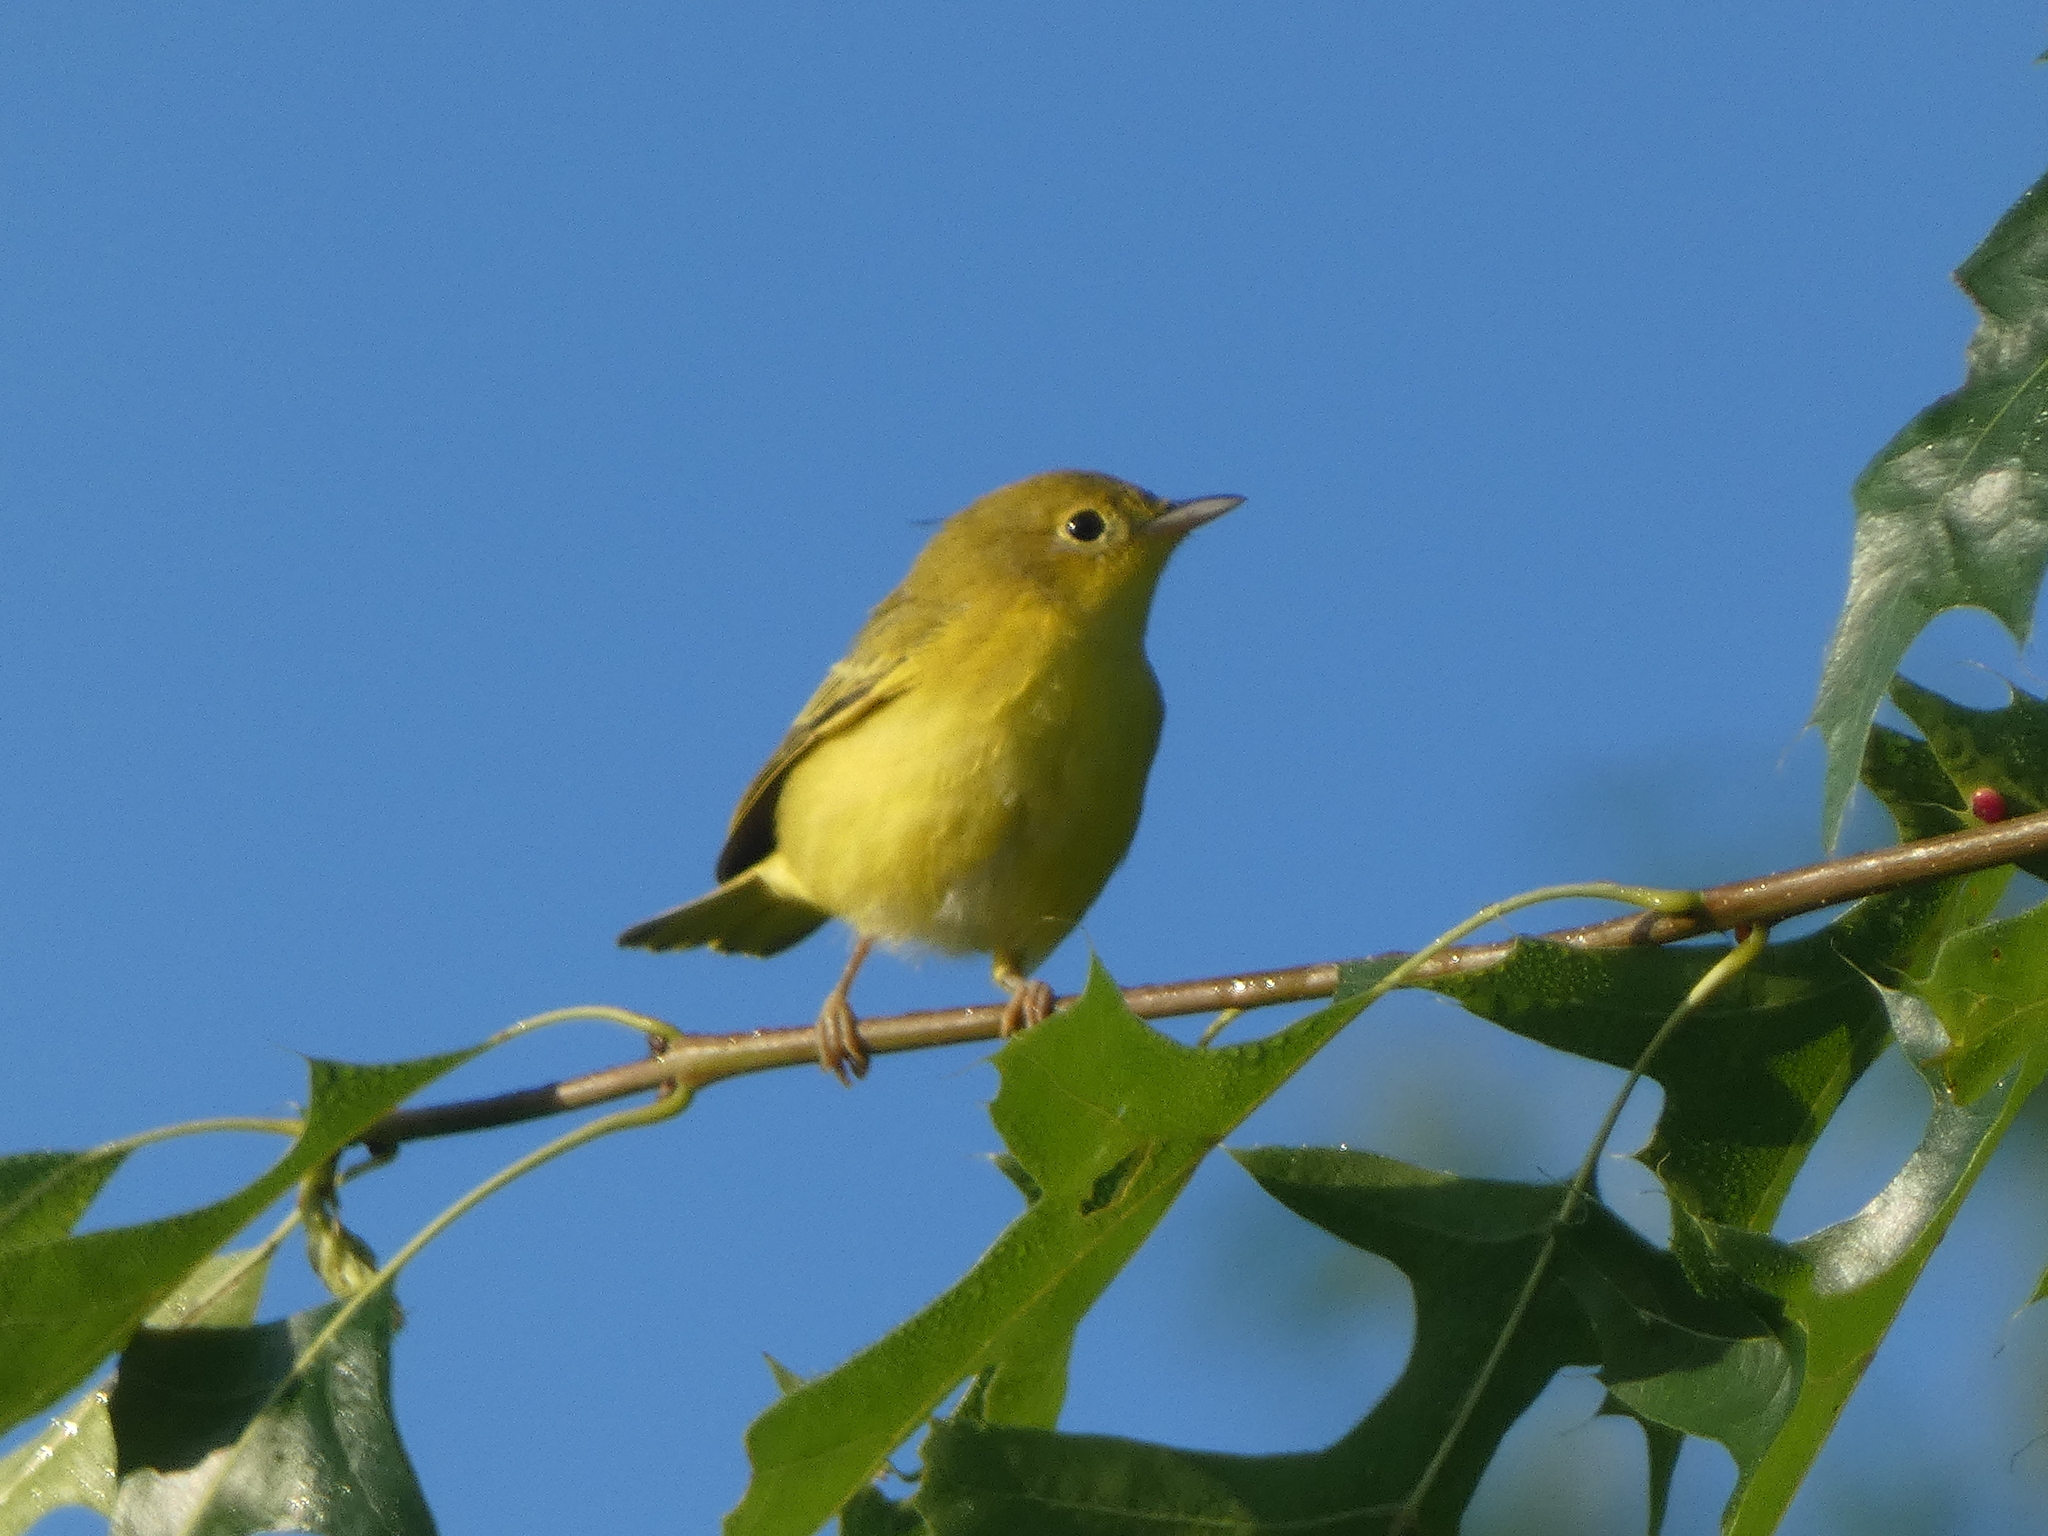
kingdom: Animalia
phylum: Chordata
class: Aves
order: Passeriformes
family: Parulidae
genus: Setophaga
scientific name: Setophaga petechia
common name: Yellow warbler
